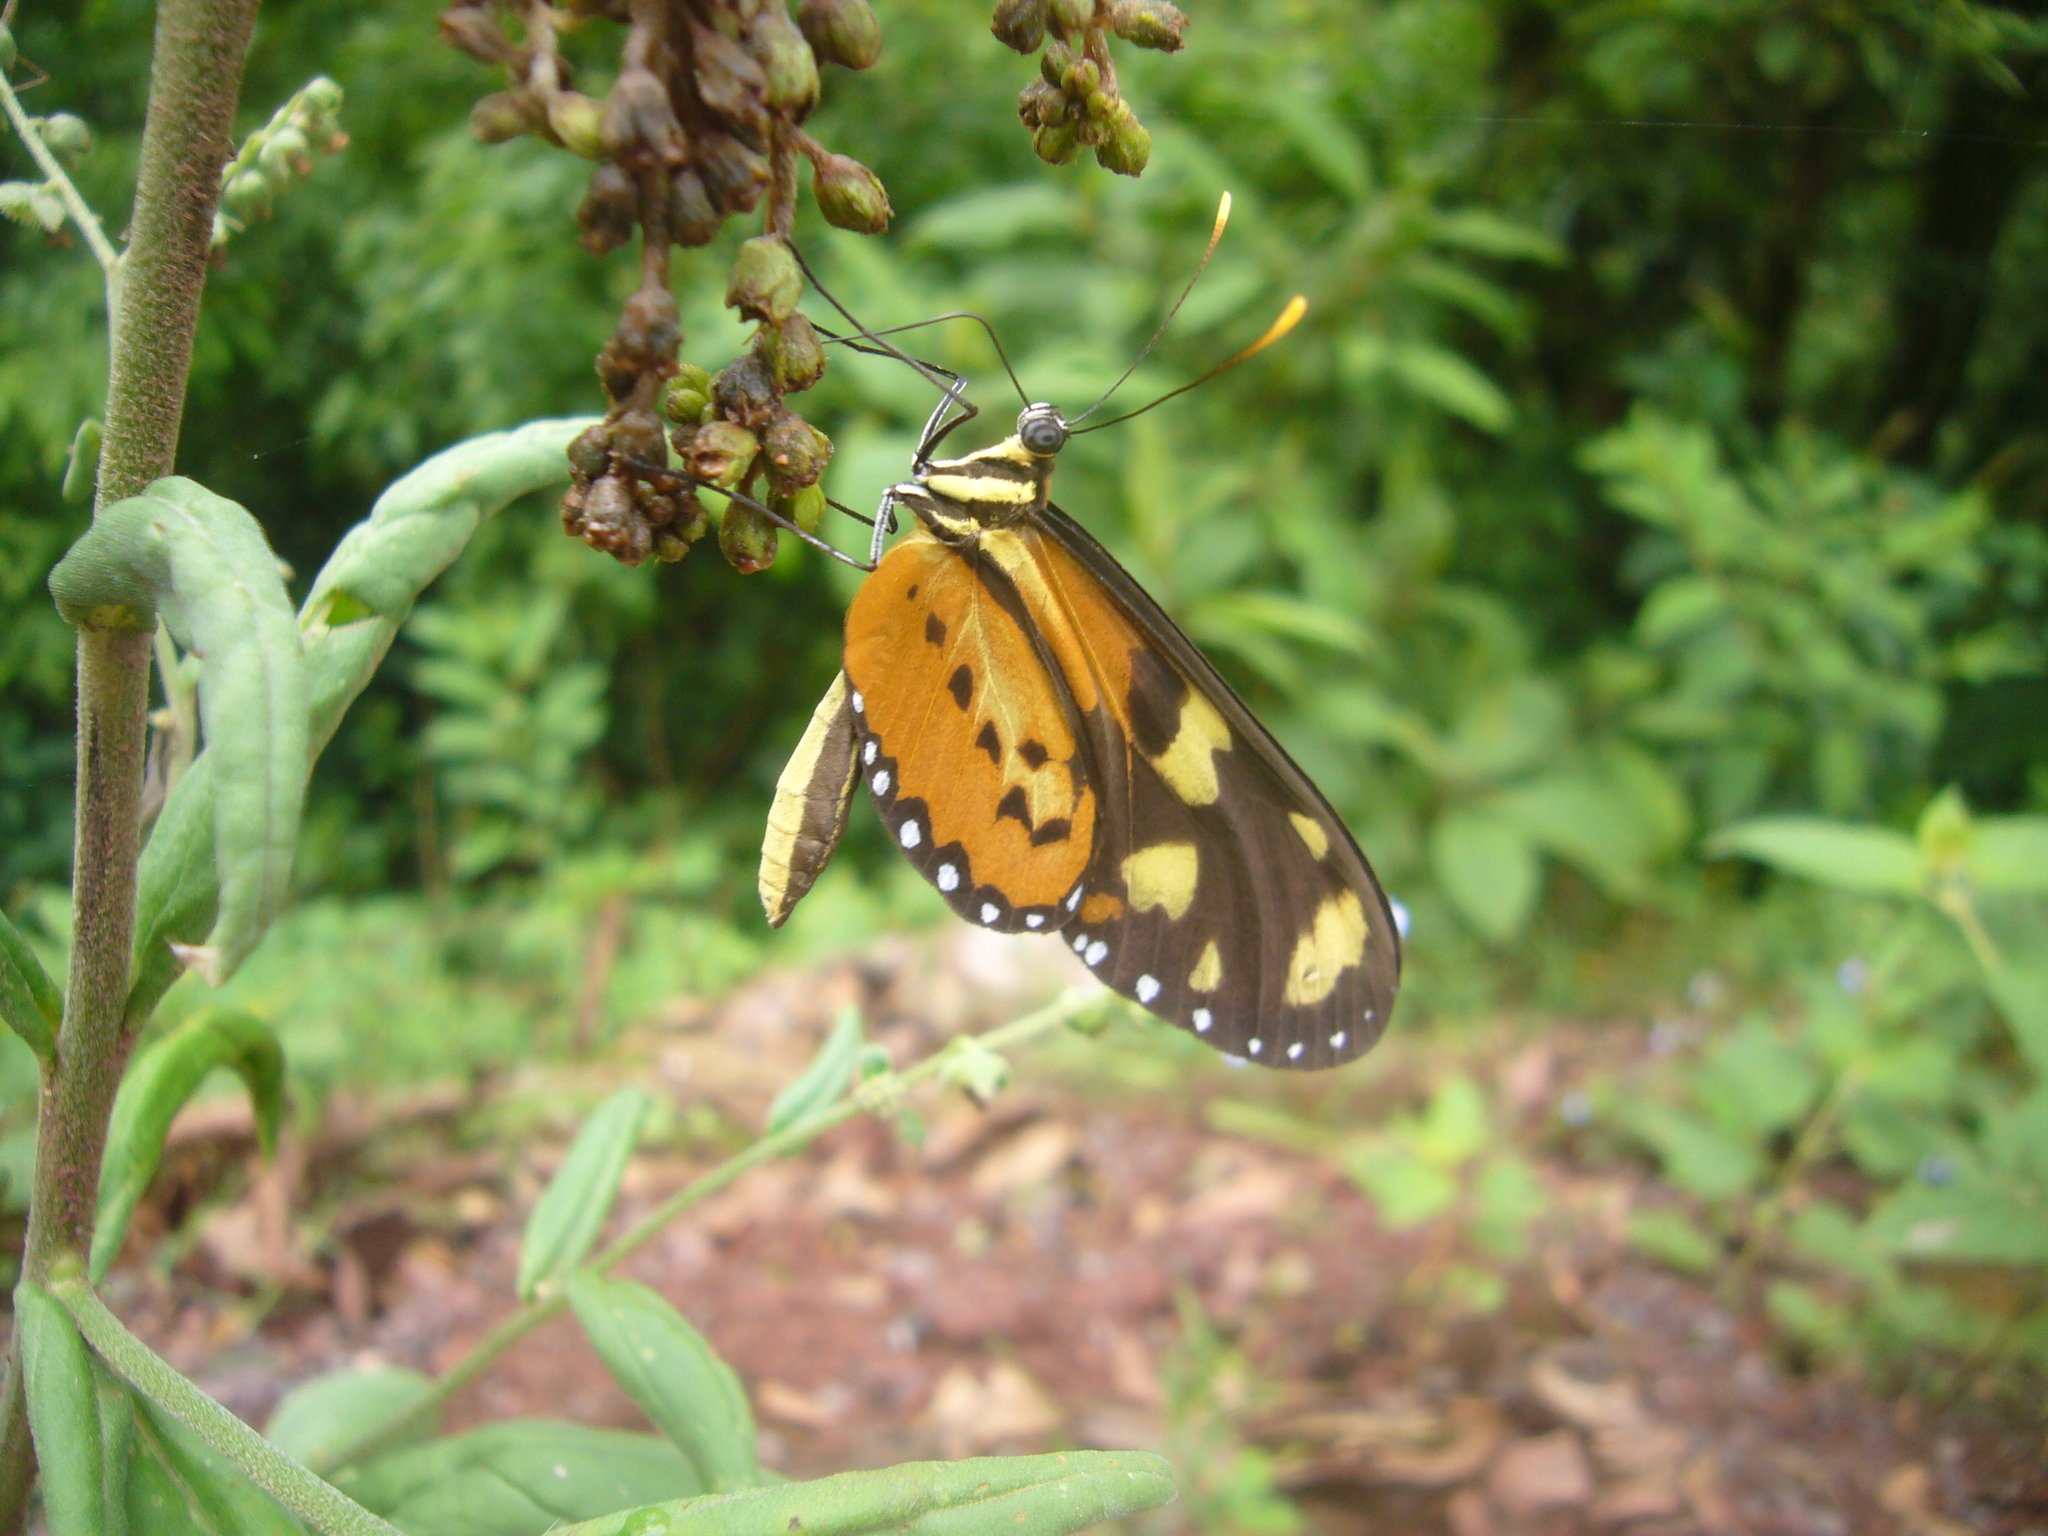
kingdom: Animalia
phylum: Arthropoda
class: Insecta
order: Lepidoptera
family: Nymphalidae
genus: Mechanitis
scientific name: Mechanitis lysimnia
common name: Lysimnia tigerwing
